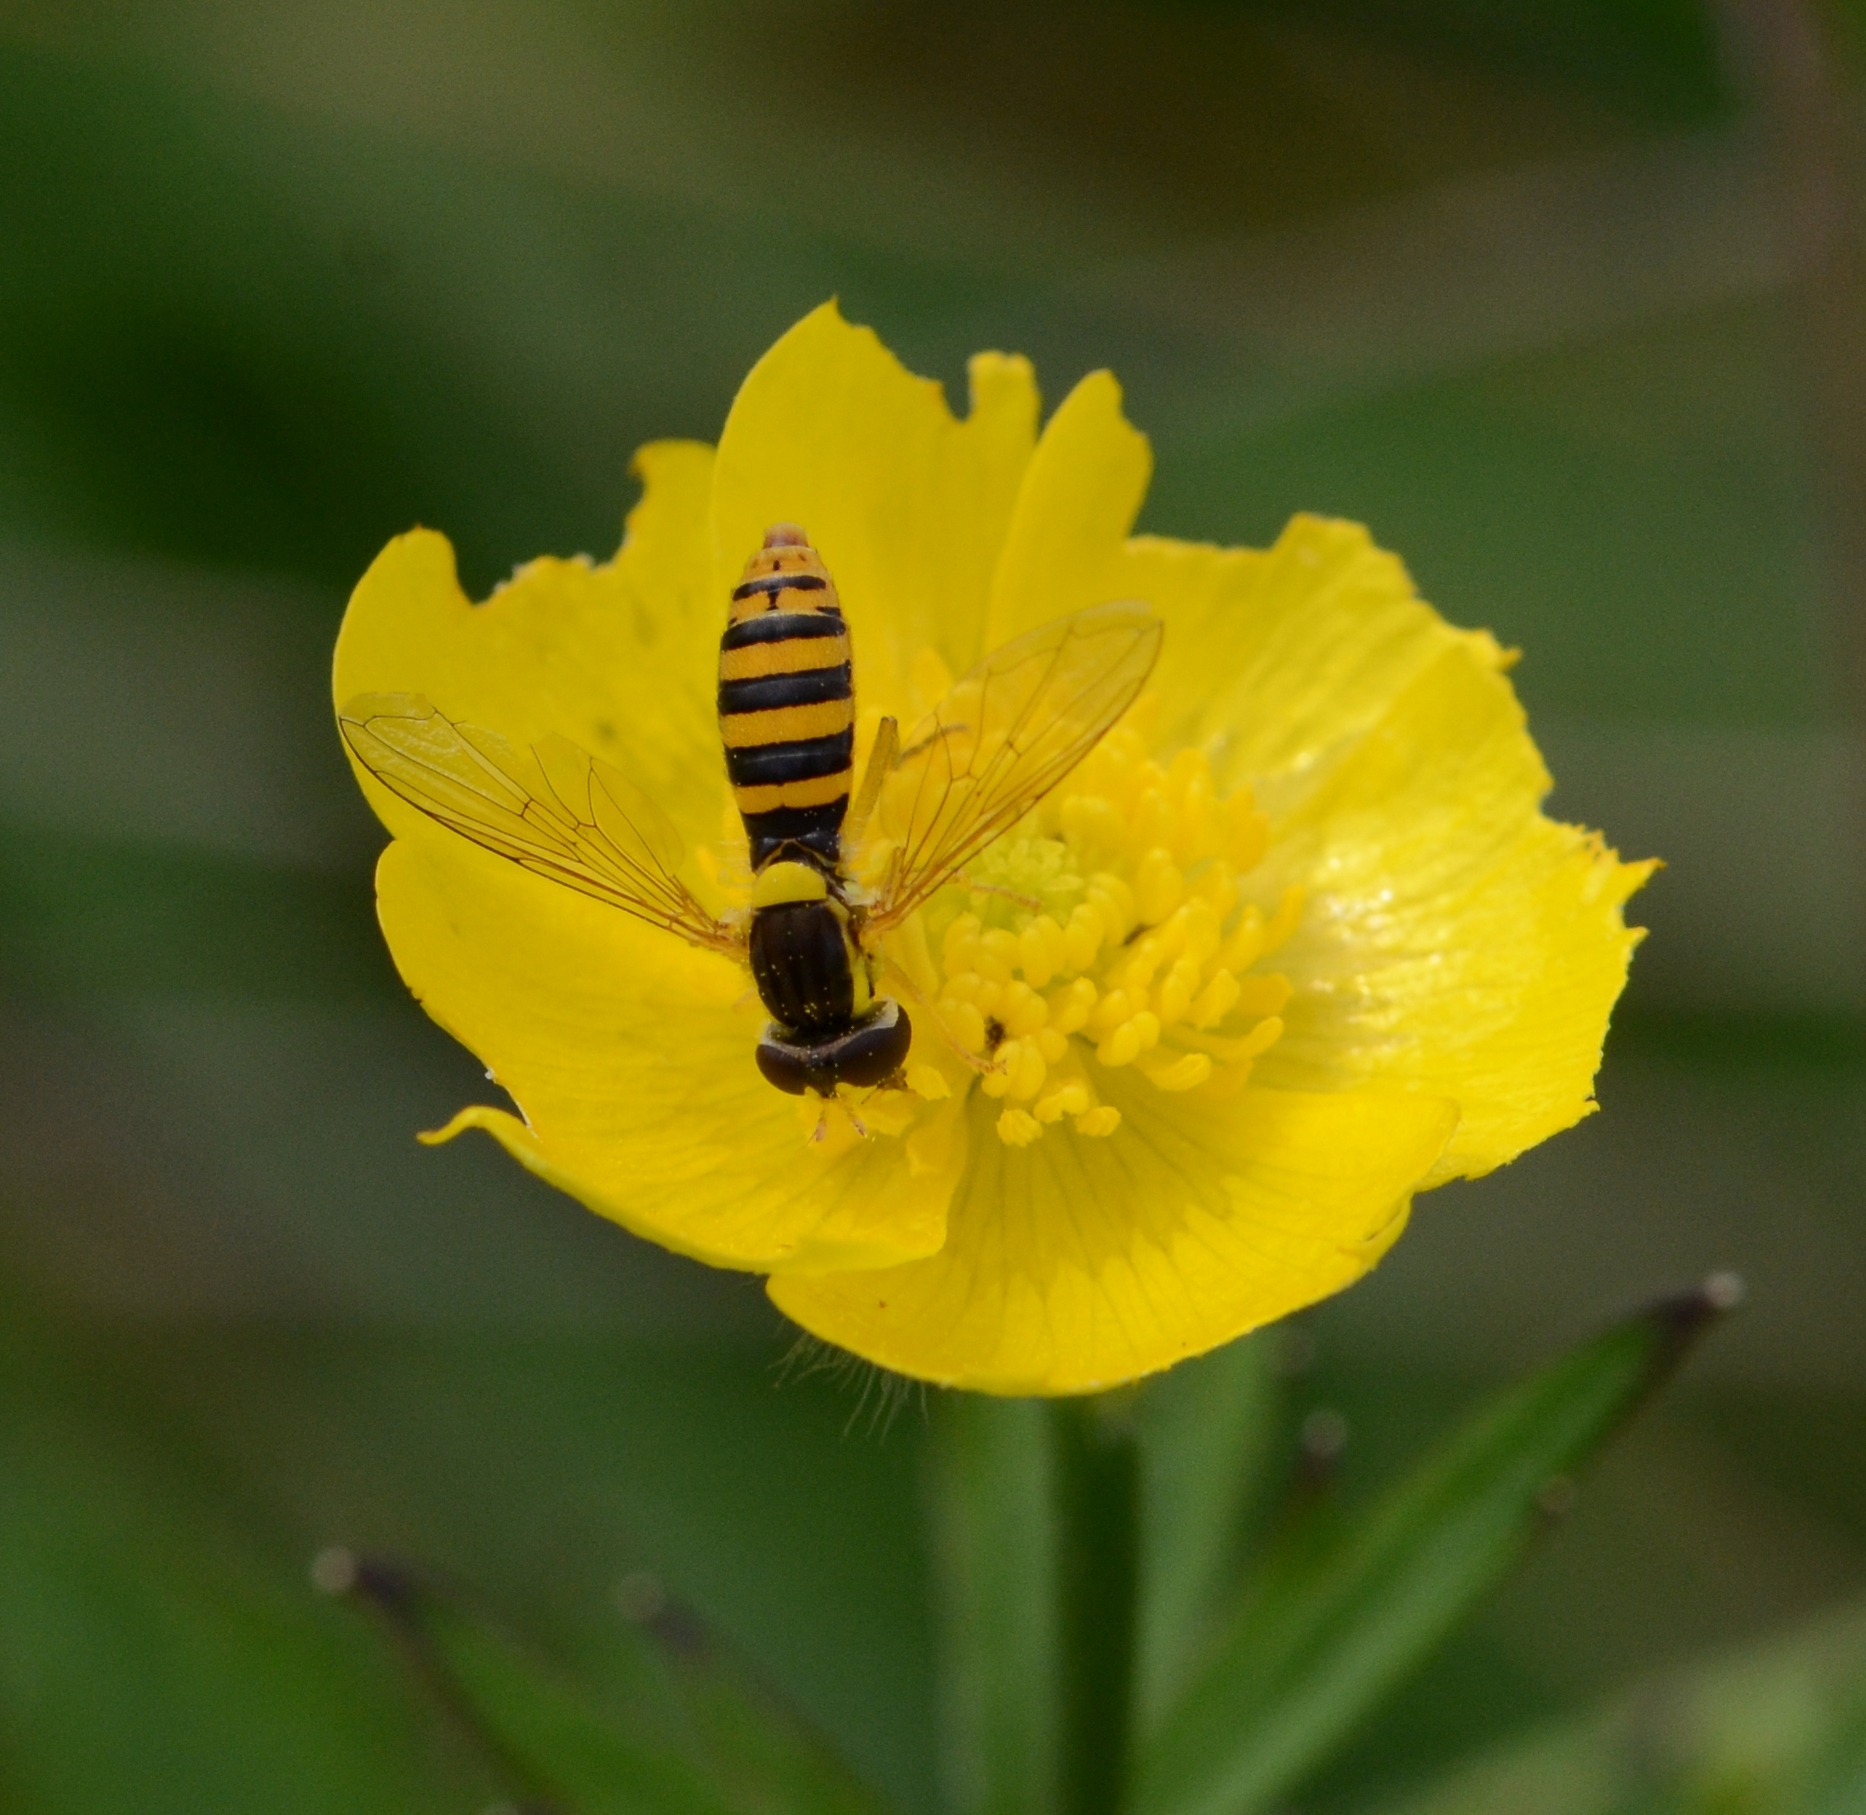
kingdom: Animalia
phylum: Arthropoda
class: Insecta
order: Diptera
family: Syrphidae
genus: Sphaerophoria
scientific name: Sphaerophoria
